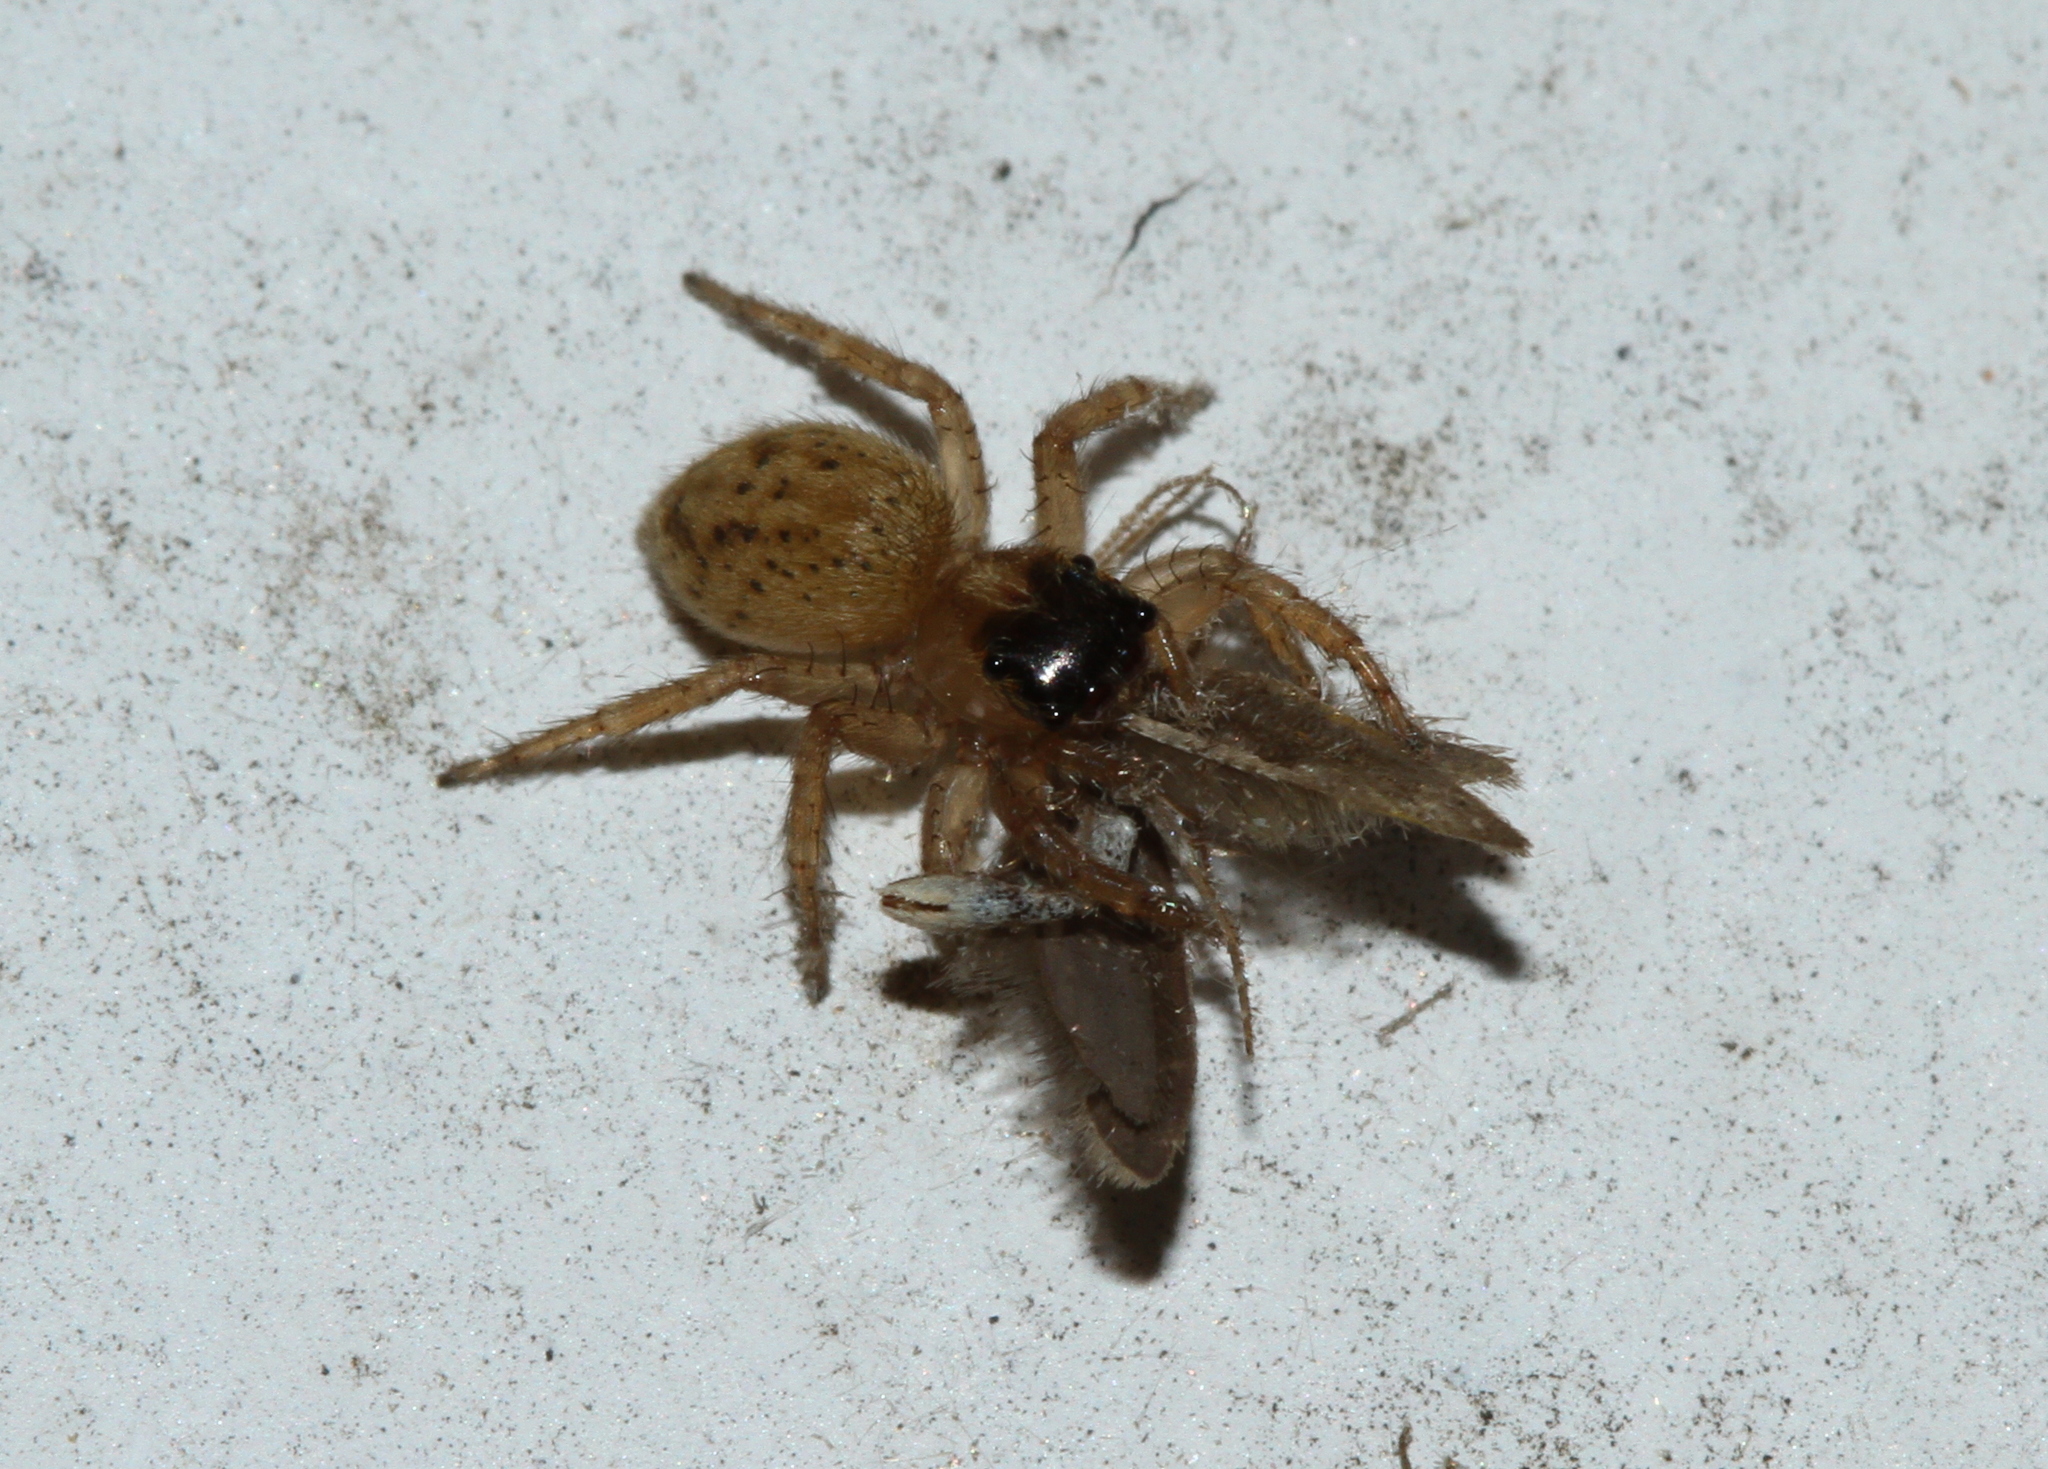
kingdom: Animalia
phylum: Arthropoda
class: Arachnida
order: Araneae
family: Salticidae
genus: Saitis
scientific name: Saitis barbipes
